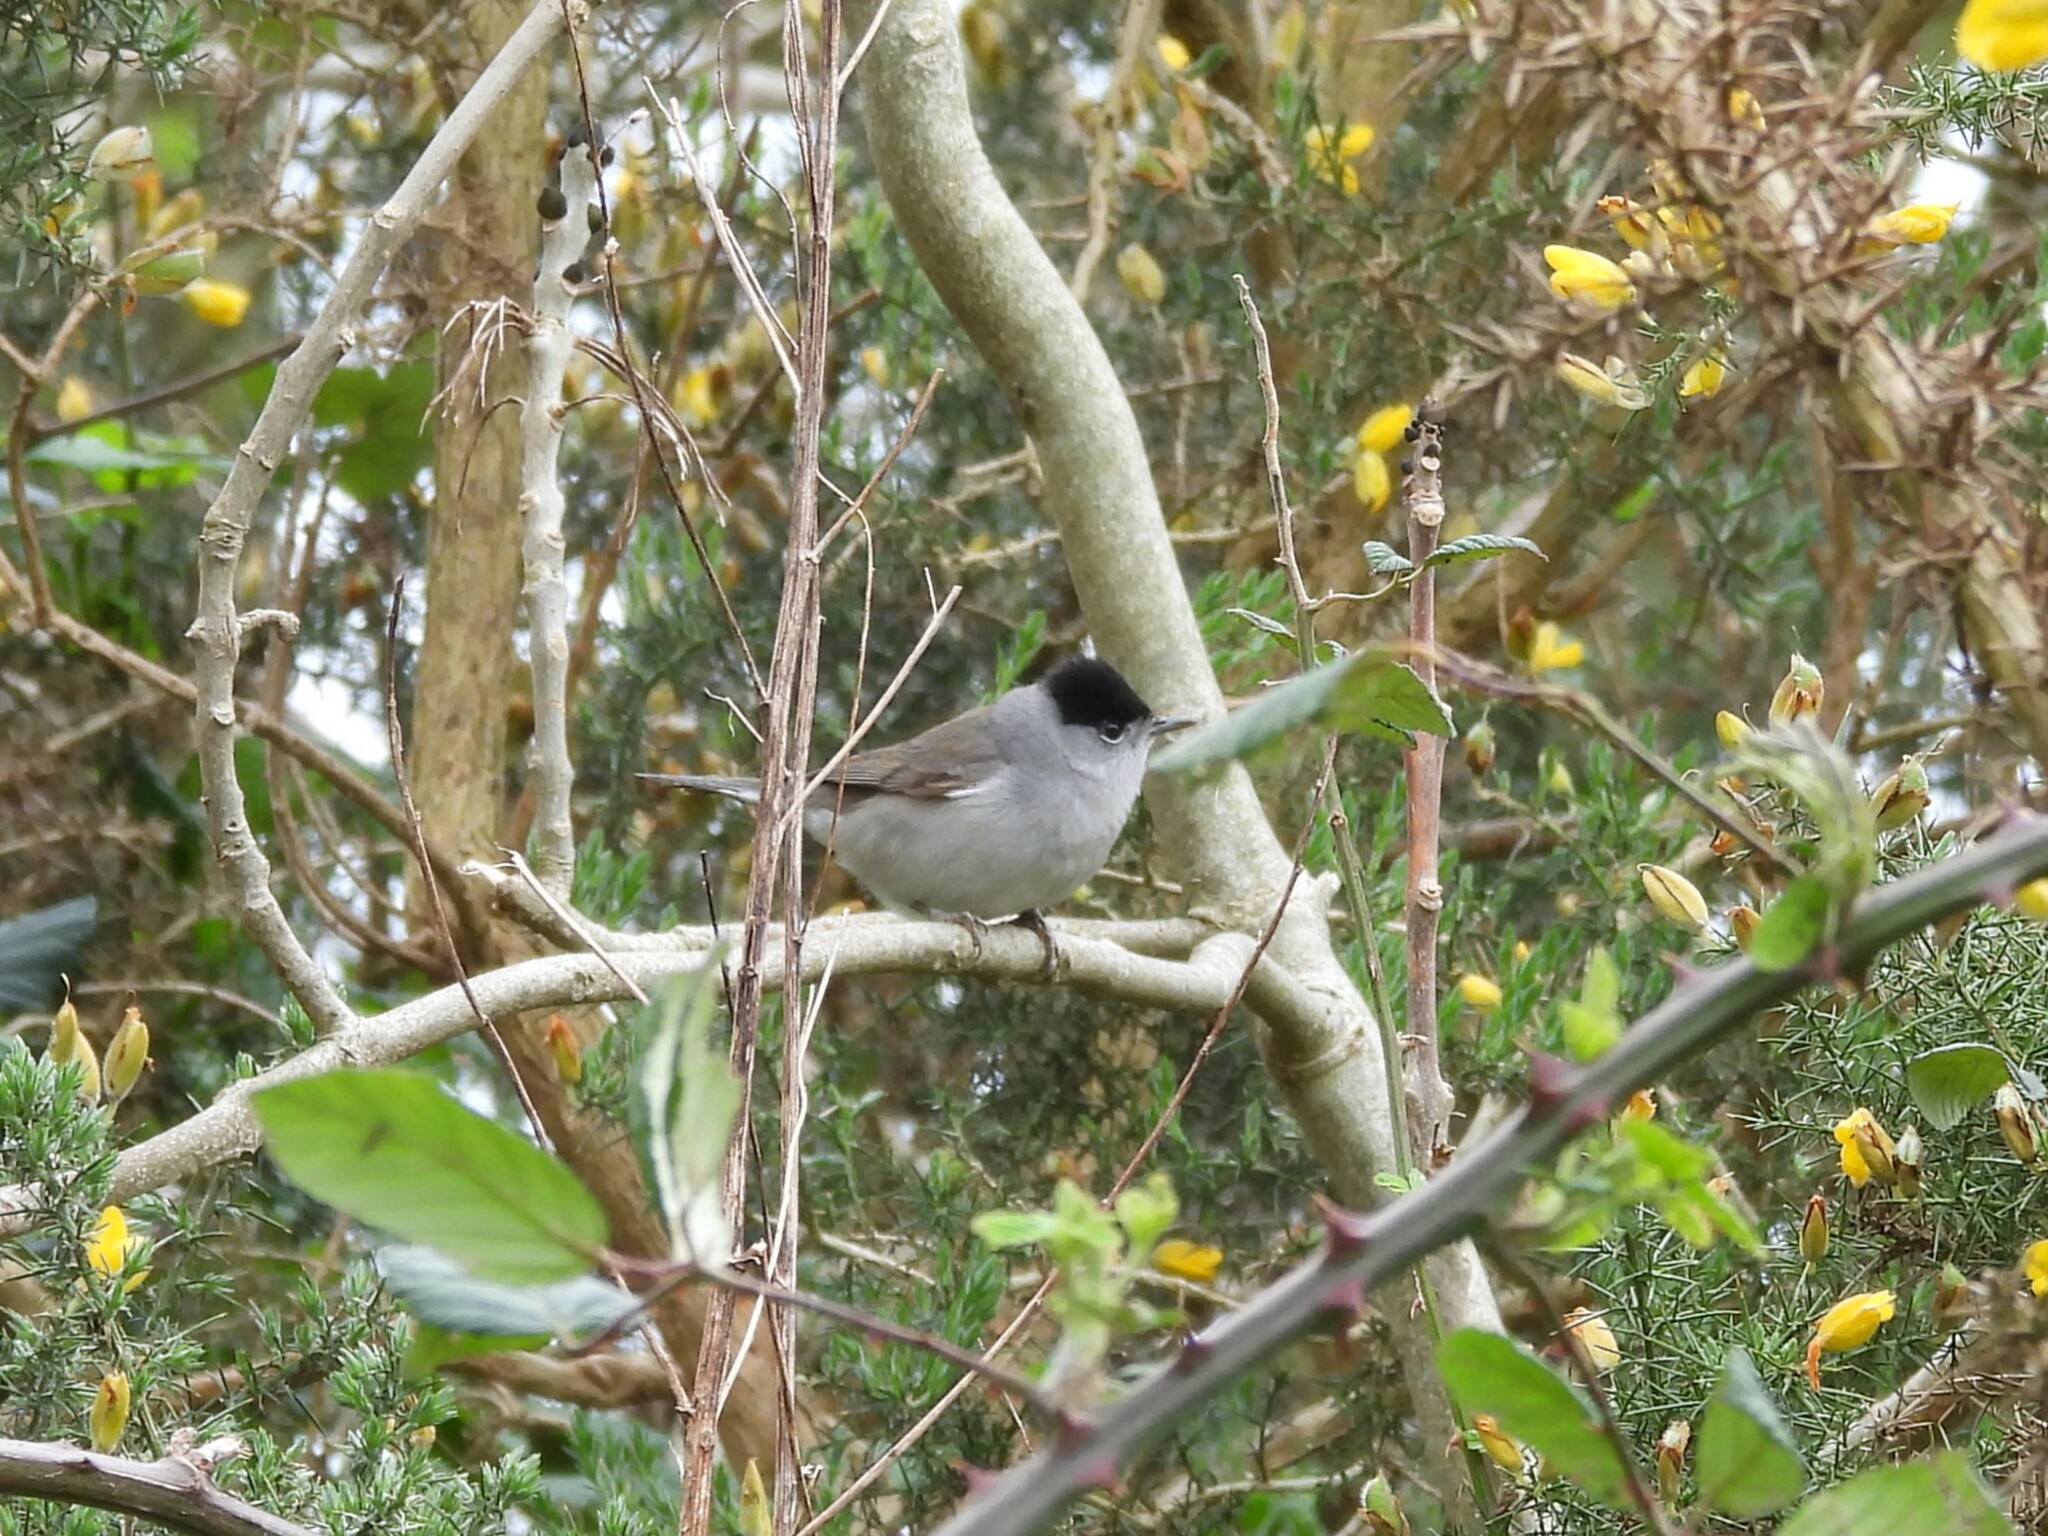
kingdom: Animalia
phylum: Chordata
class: Aves
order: Passeriformes
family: Sylviidae
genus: Sylvia
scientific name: Sylvia atricapilla
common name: Eurasian blackcap
